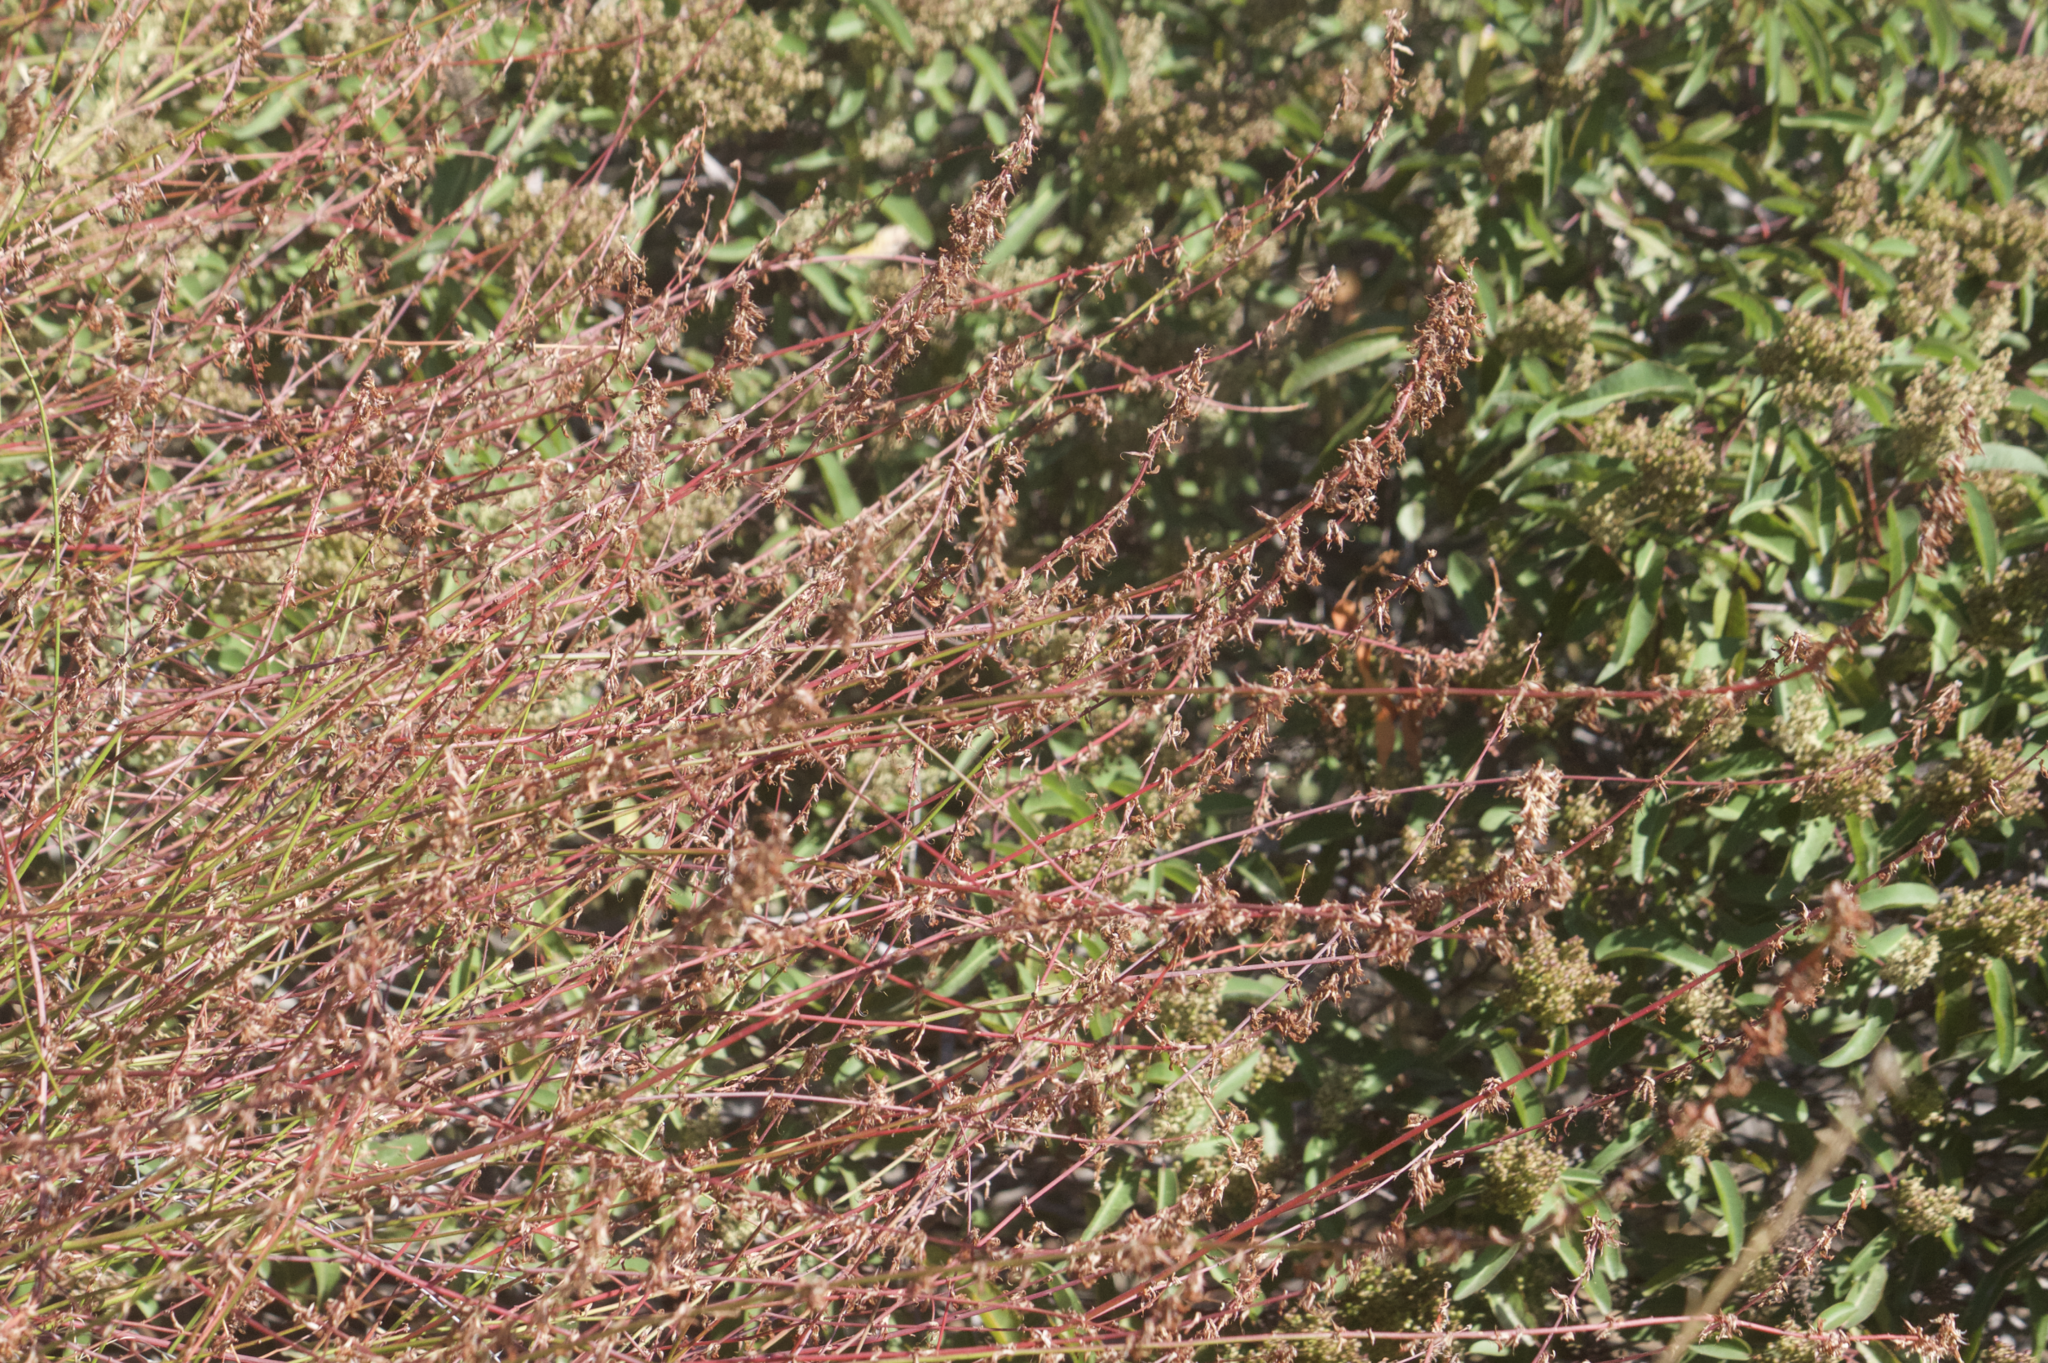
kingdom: Plantae
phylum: Tracheophyta
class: Magnoliopsida
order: Fabales
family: Fabaceae
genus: Acmispon
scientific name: Acmispon glaber
